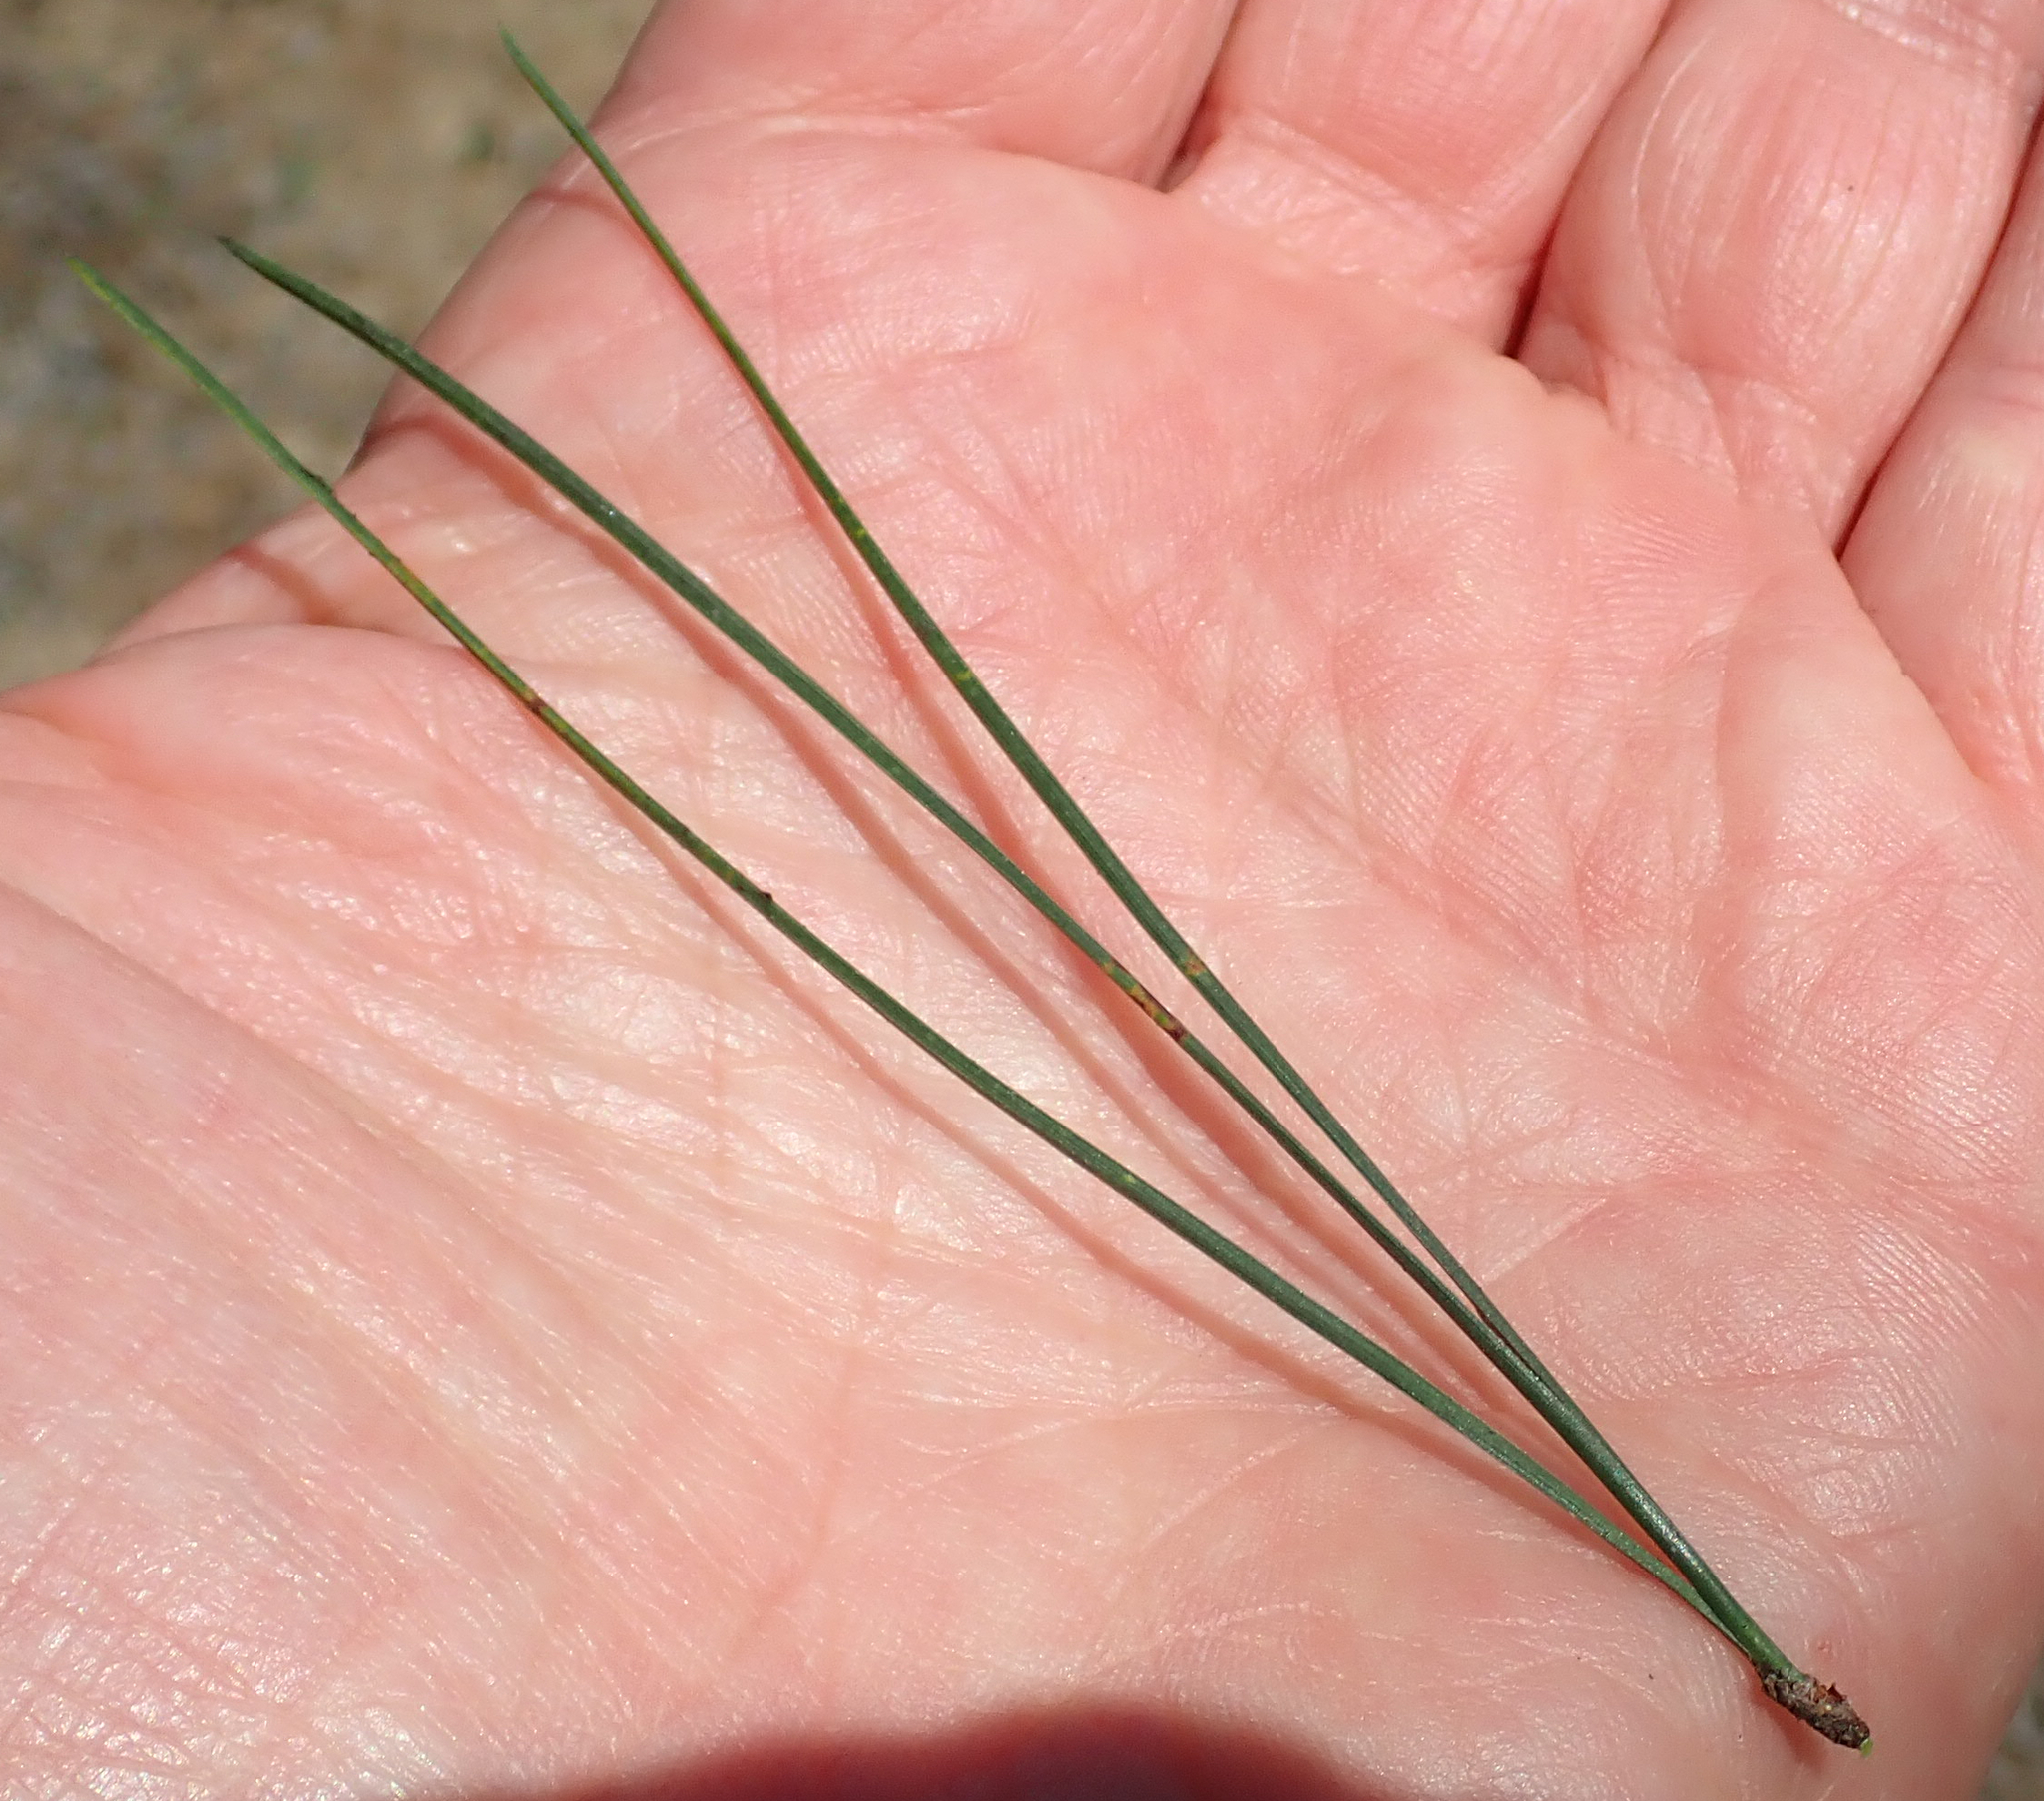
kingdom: Plantae
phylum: Tracheophyta
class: Pinopsida
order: Pinales
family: Pinaceae
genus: Pinus
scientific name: Pinus radiata
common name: Monterey pine
